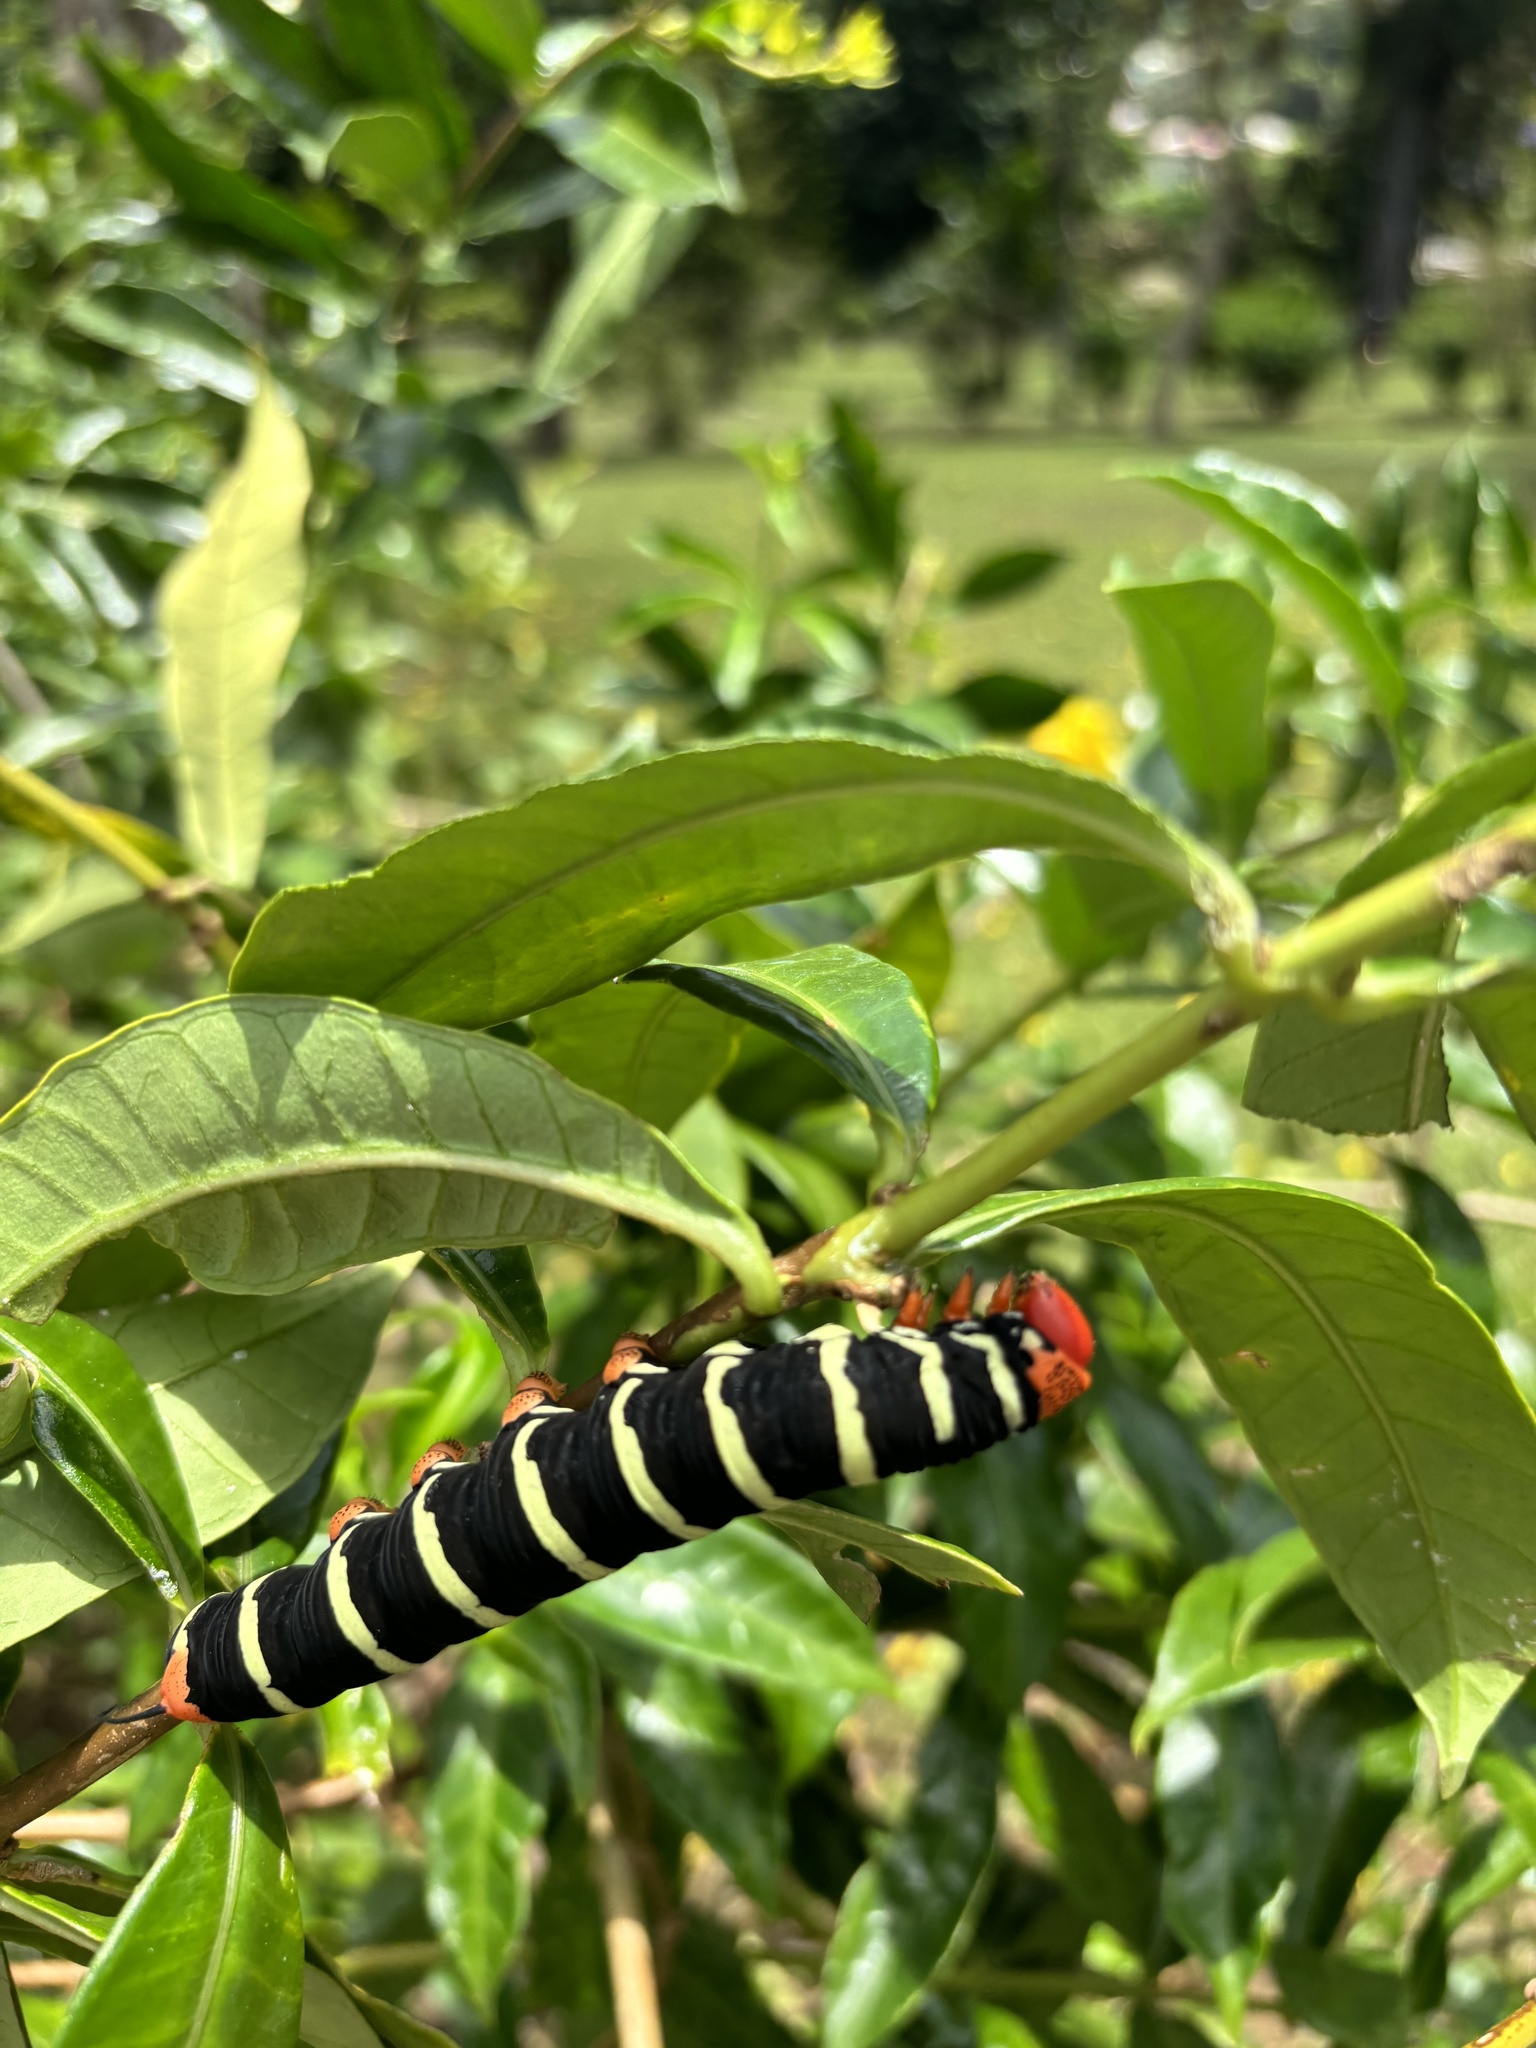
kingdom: Animalia
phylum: Arthropoda
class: Insecta
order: Lepidoptera
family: Sphingidae
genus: Pseudosphinx
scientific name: Pseudosphinx tetrio
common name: Tetrio sphinx
